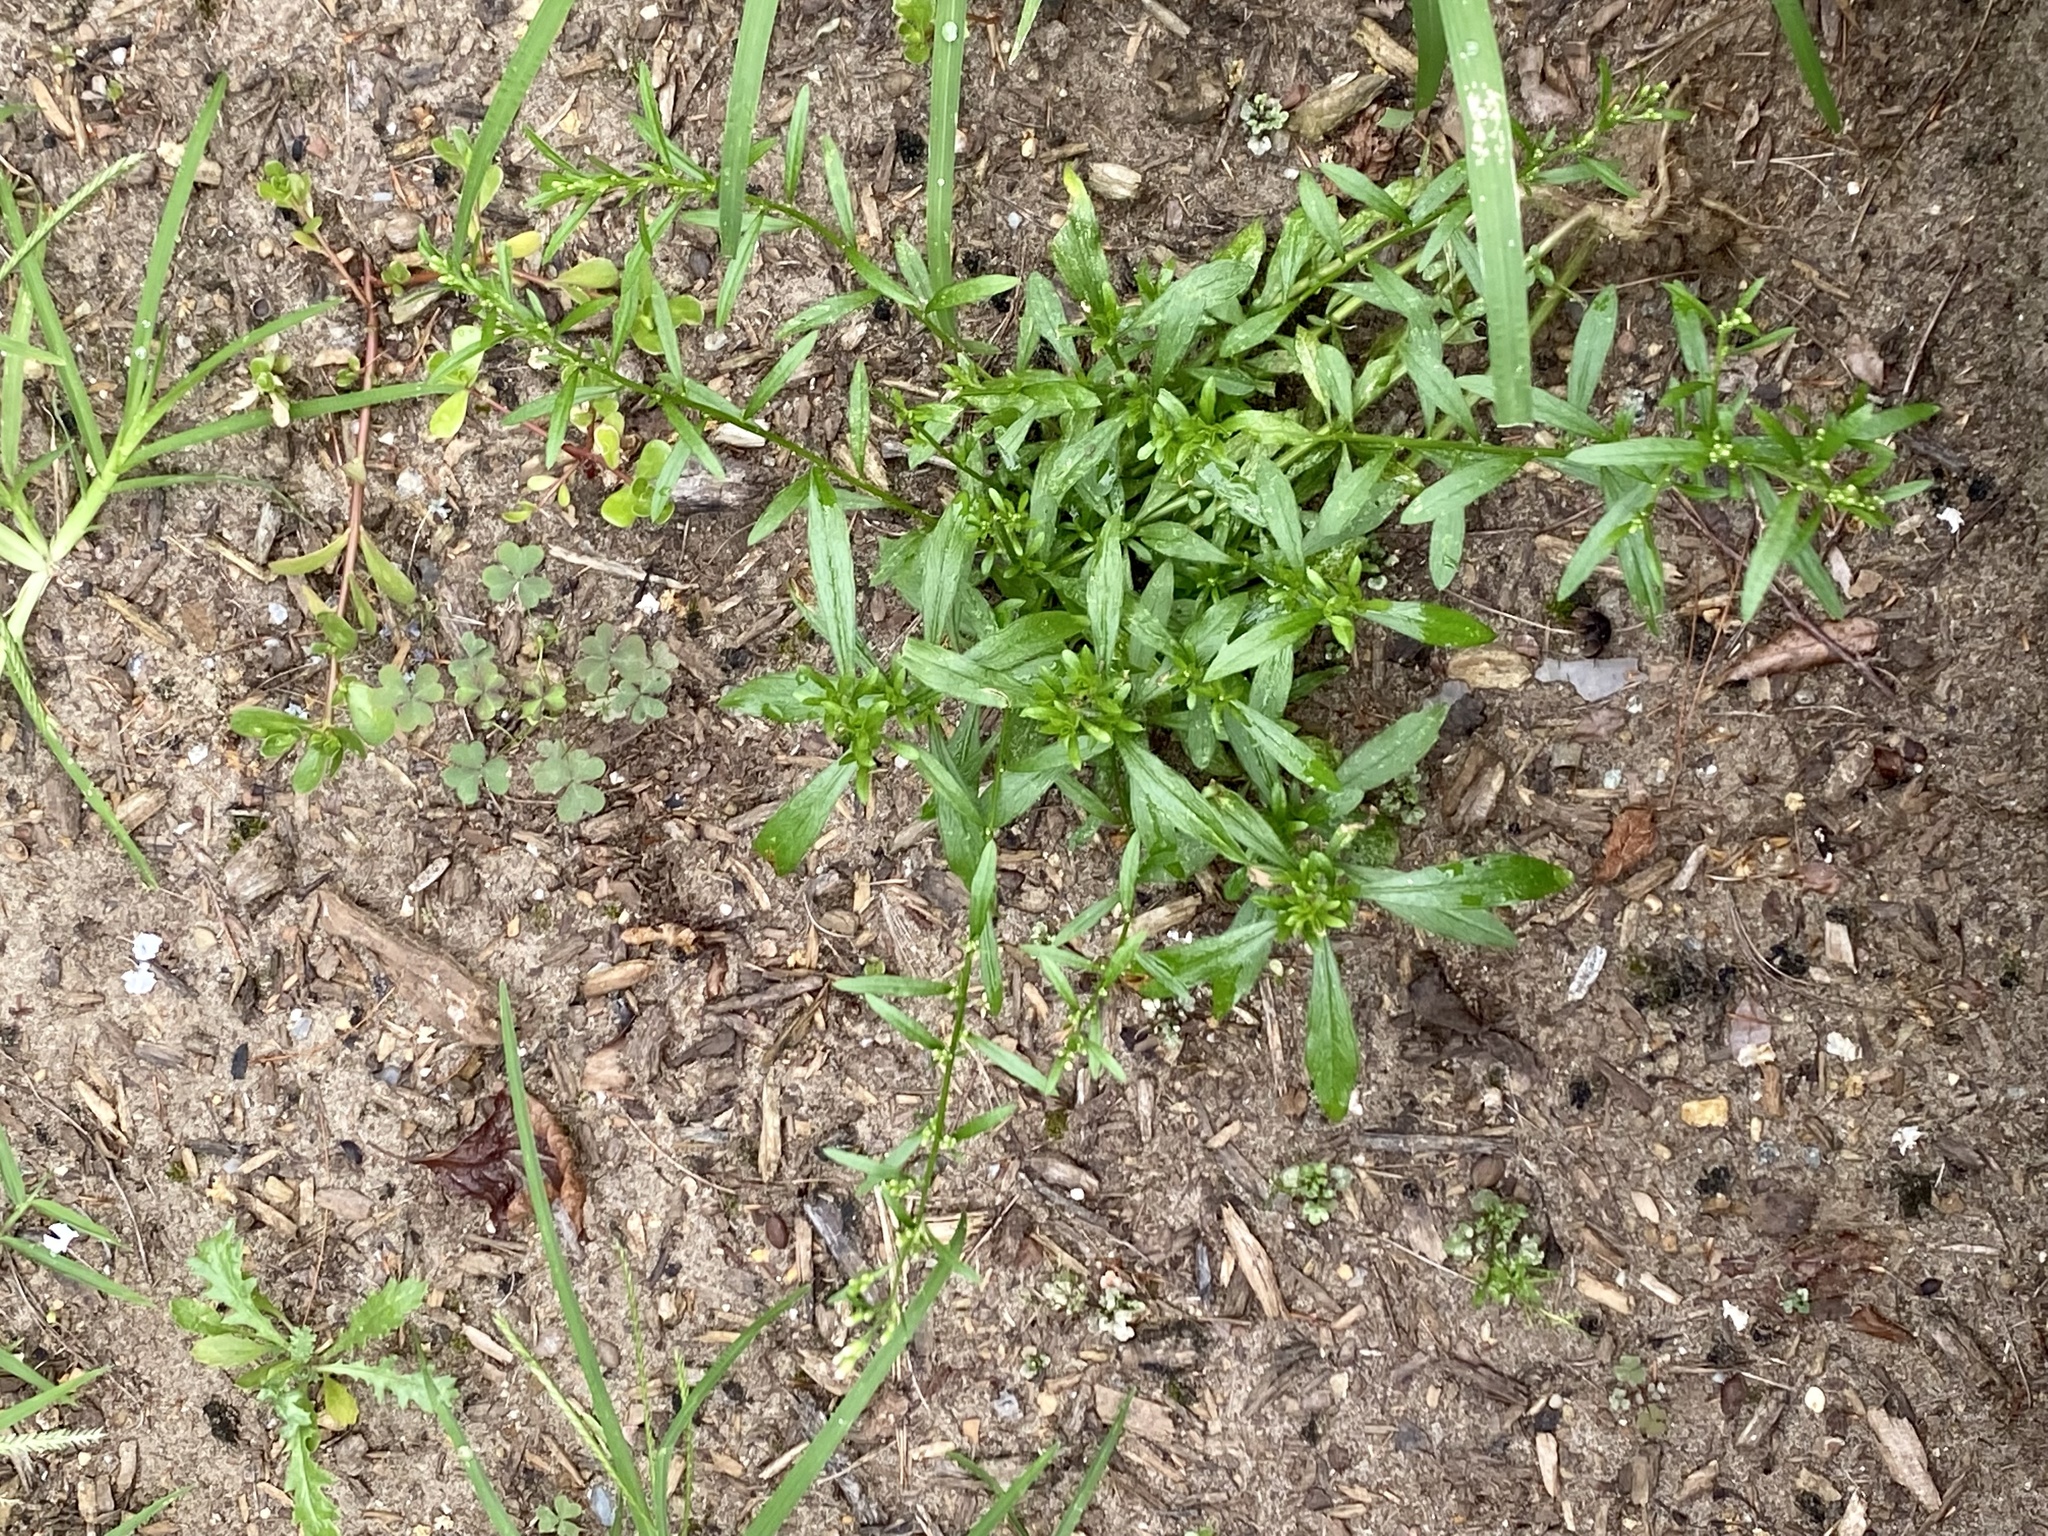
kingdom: Plantae
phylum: Tracheophyta
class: Magnoliopsida
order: Caryophyllales
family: Molluginaceae
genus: Mollugo
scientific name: Mollugo verticillata
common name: Green carpetweed
